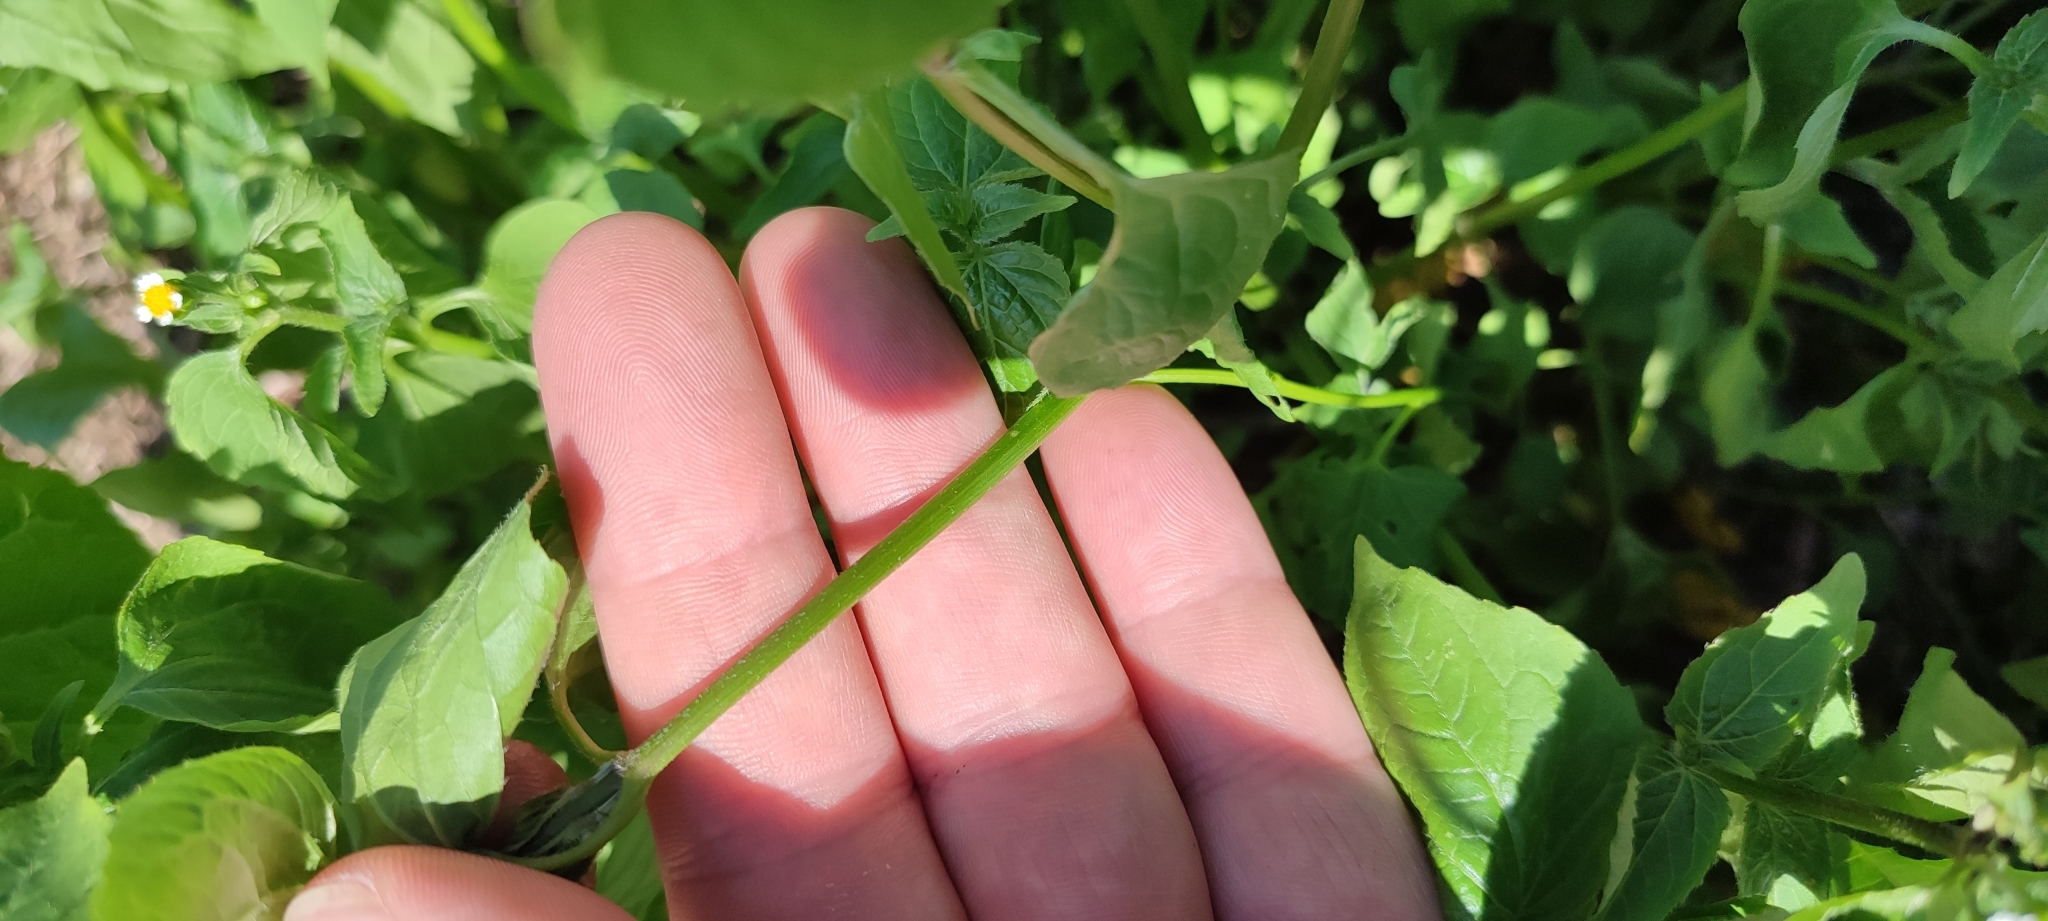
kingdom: Plantae
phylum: Tracheophyta
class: Magnoliopsida
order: Asterales
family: Asteraceae
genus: Galinsoga
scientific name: Galinsoga parviflora
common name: Gallant soldier
